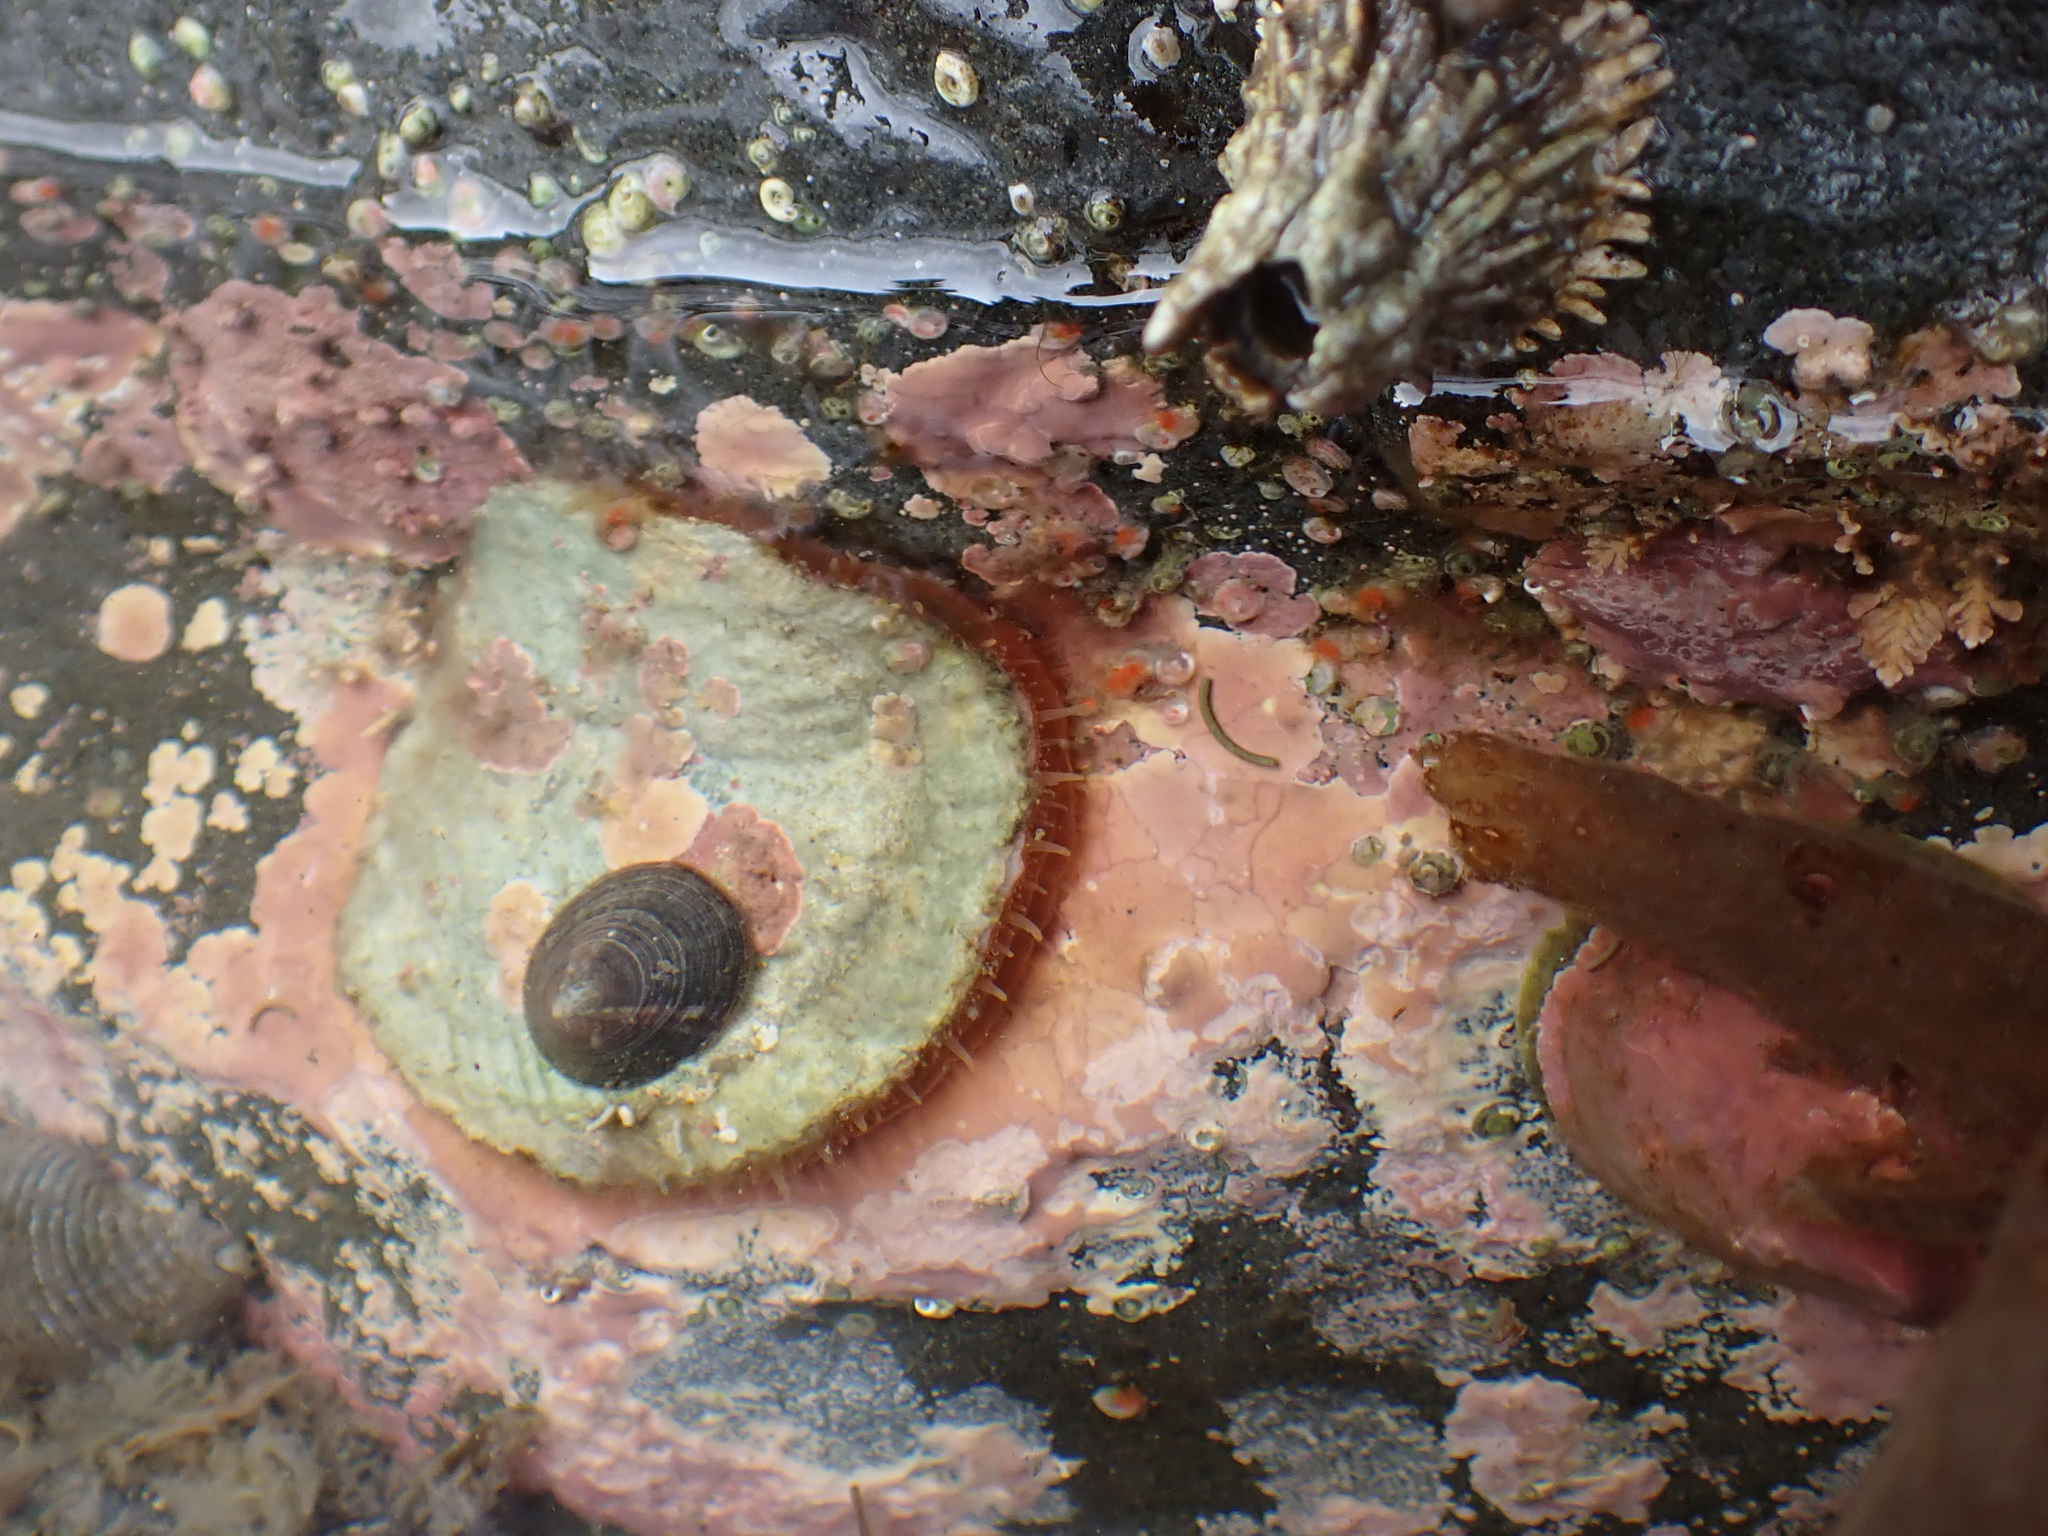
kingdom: Animalia
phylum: Mollusca
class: Bivalvia
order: Pectinida
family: Anomiidae
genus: Pododesmus
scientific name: Pododesmus macrochisma
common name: Alaska jingle
